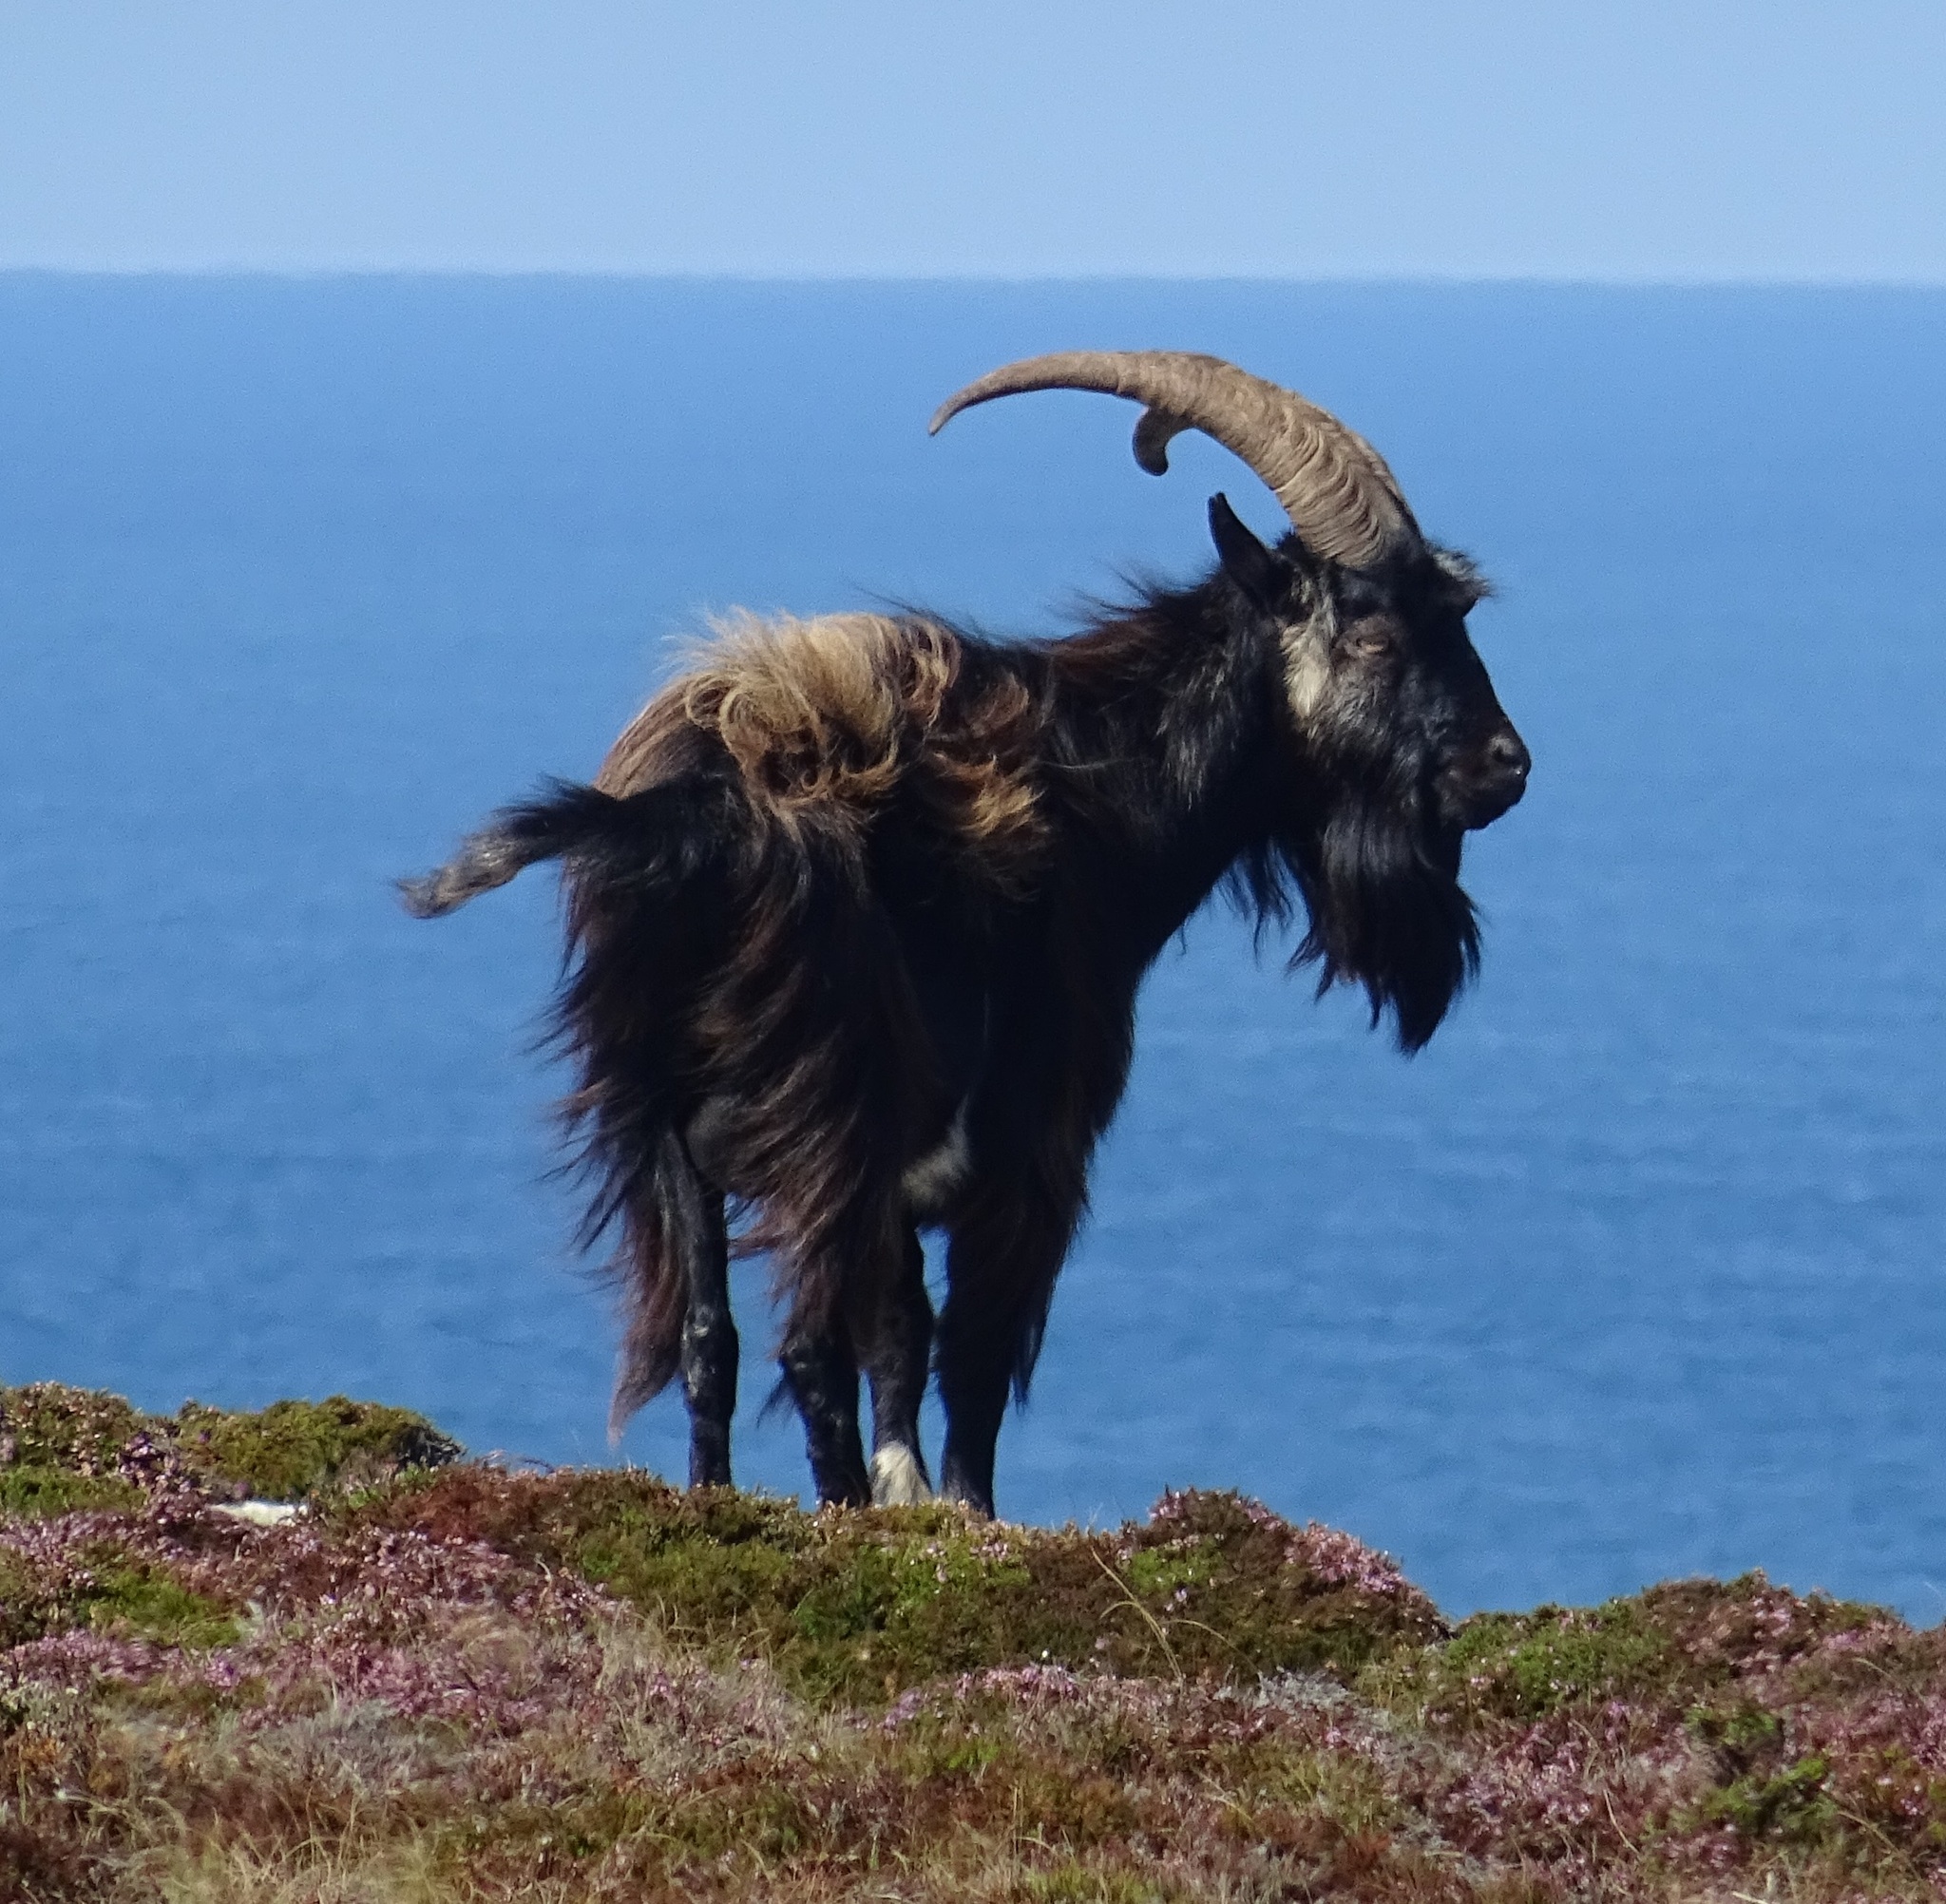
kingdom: Animalia
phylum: Chordata
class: Mammalia
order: Artiodactyla
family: Bovidae
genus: Capra
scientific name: Capra hircus
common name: Domestic goat
